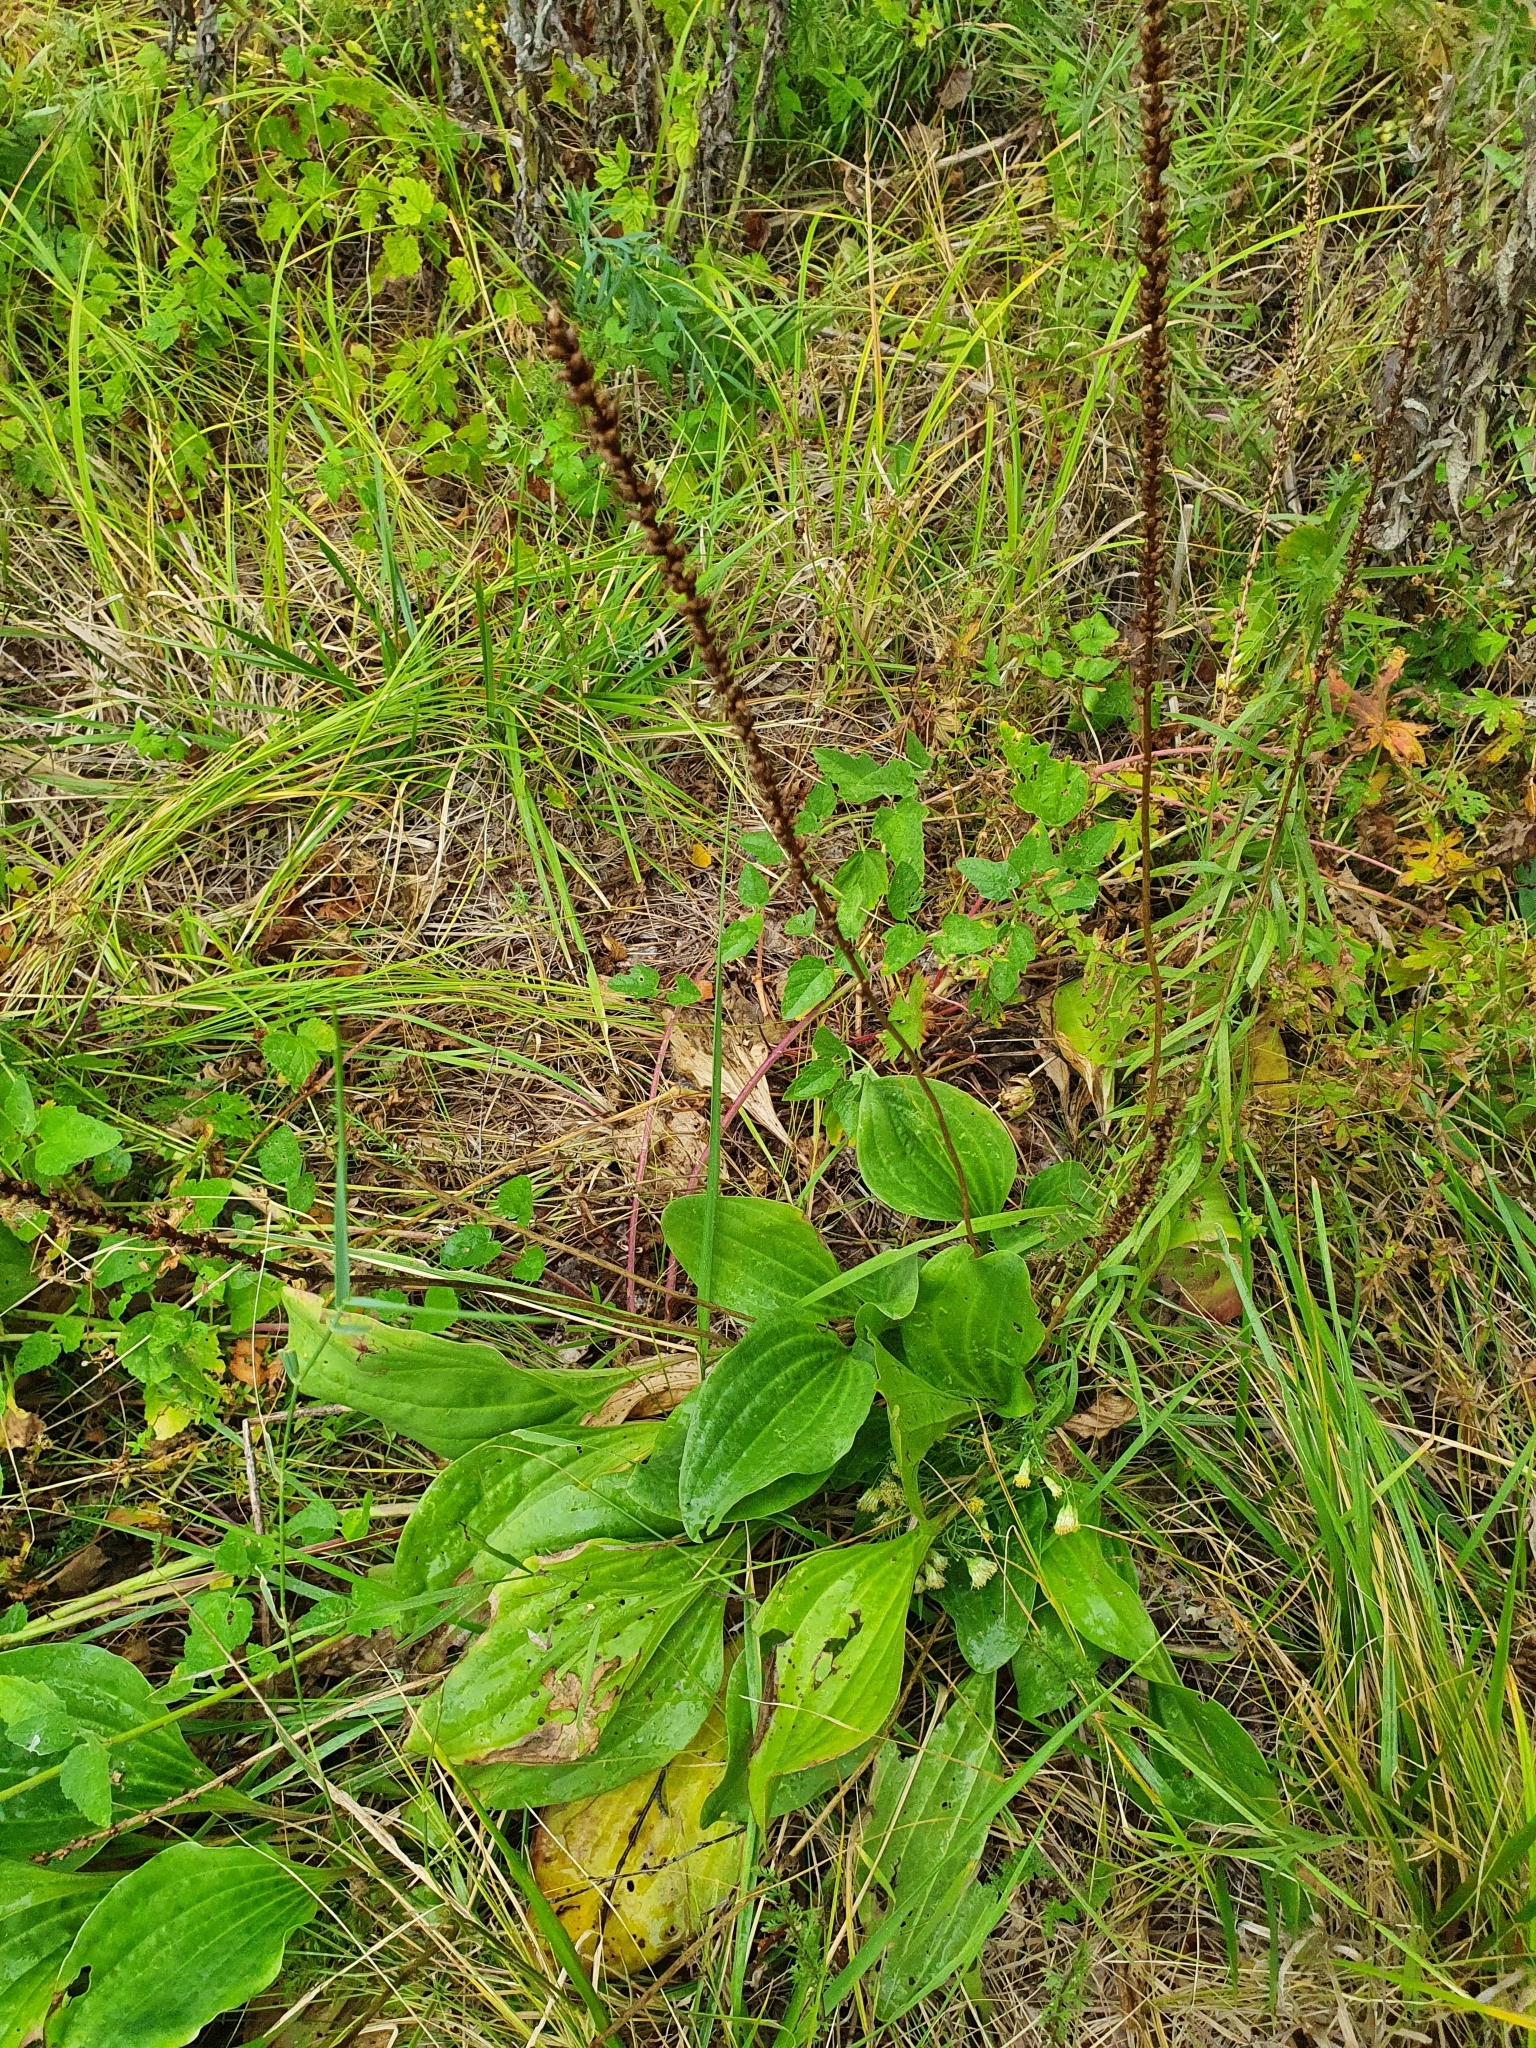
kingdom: Plantae
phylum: Tracheophyta
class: Magnoliopsida
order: Lamiales
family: Plantaginaceae
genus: Plantago
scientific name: Plantago cornuti
